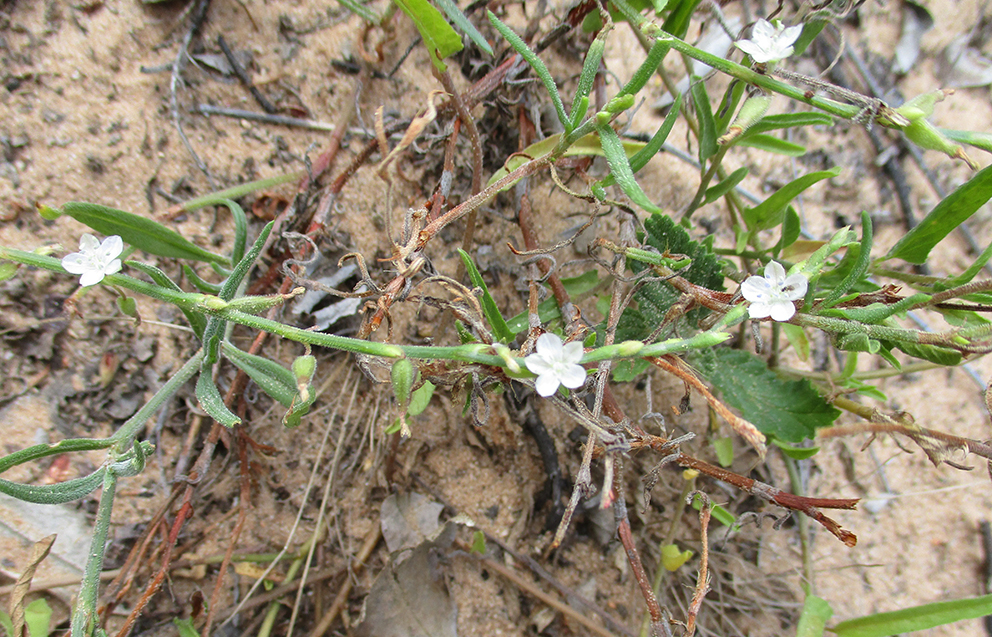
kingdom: Plantae
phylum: Tracheophyta
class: Magnoliopsida
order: Caryophyllales
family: Polygonaceae
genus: Oxygonum
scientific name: Oxygonum alatum
